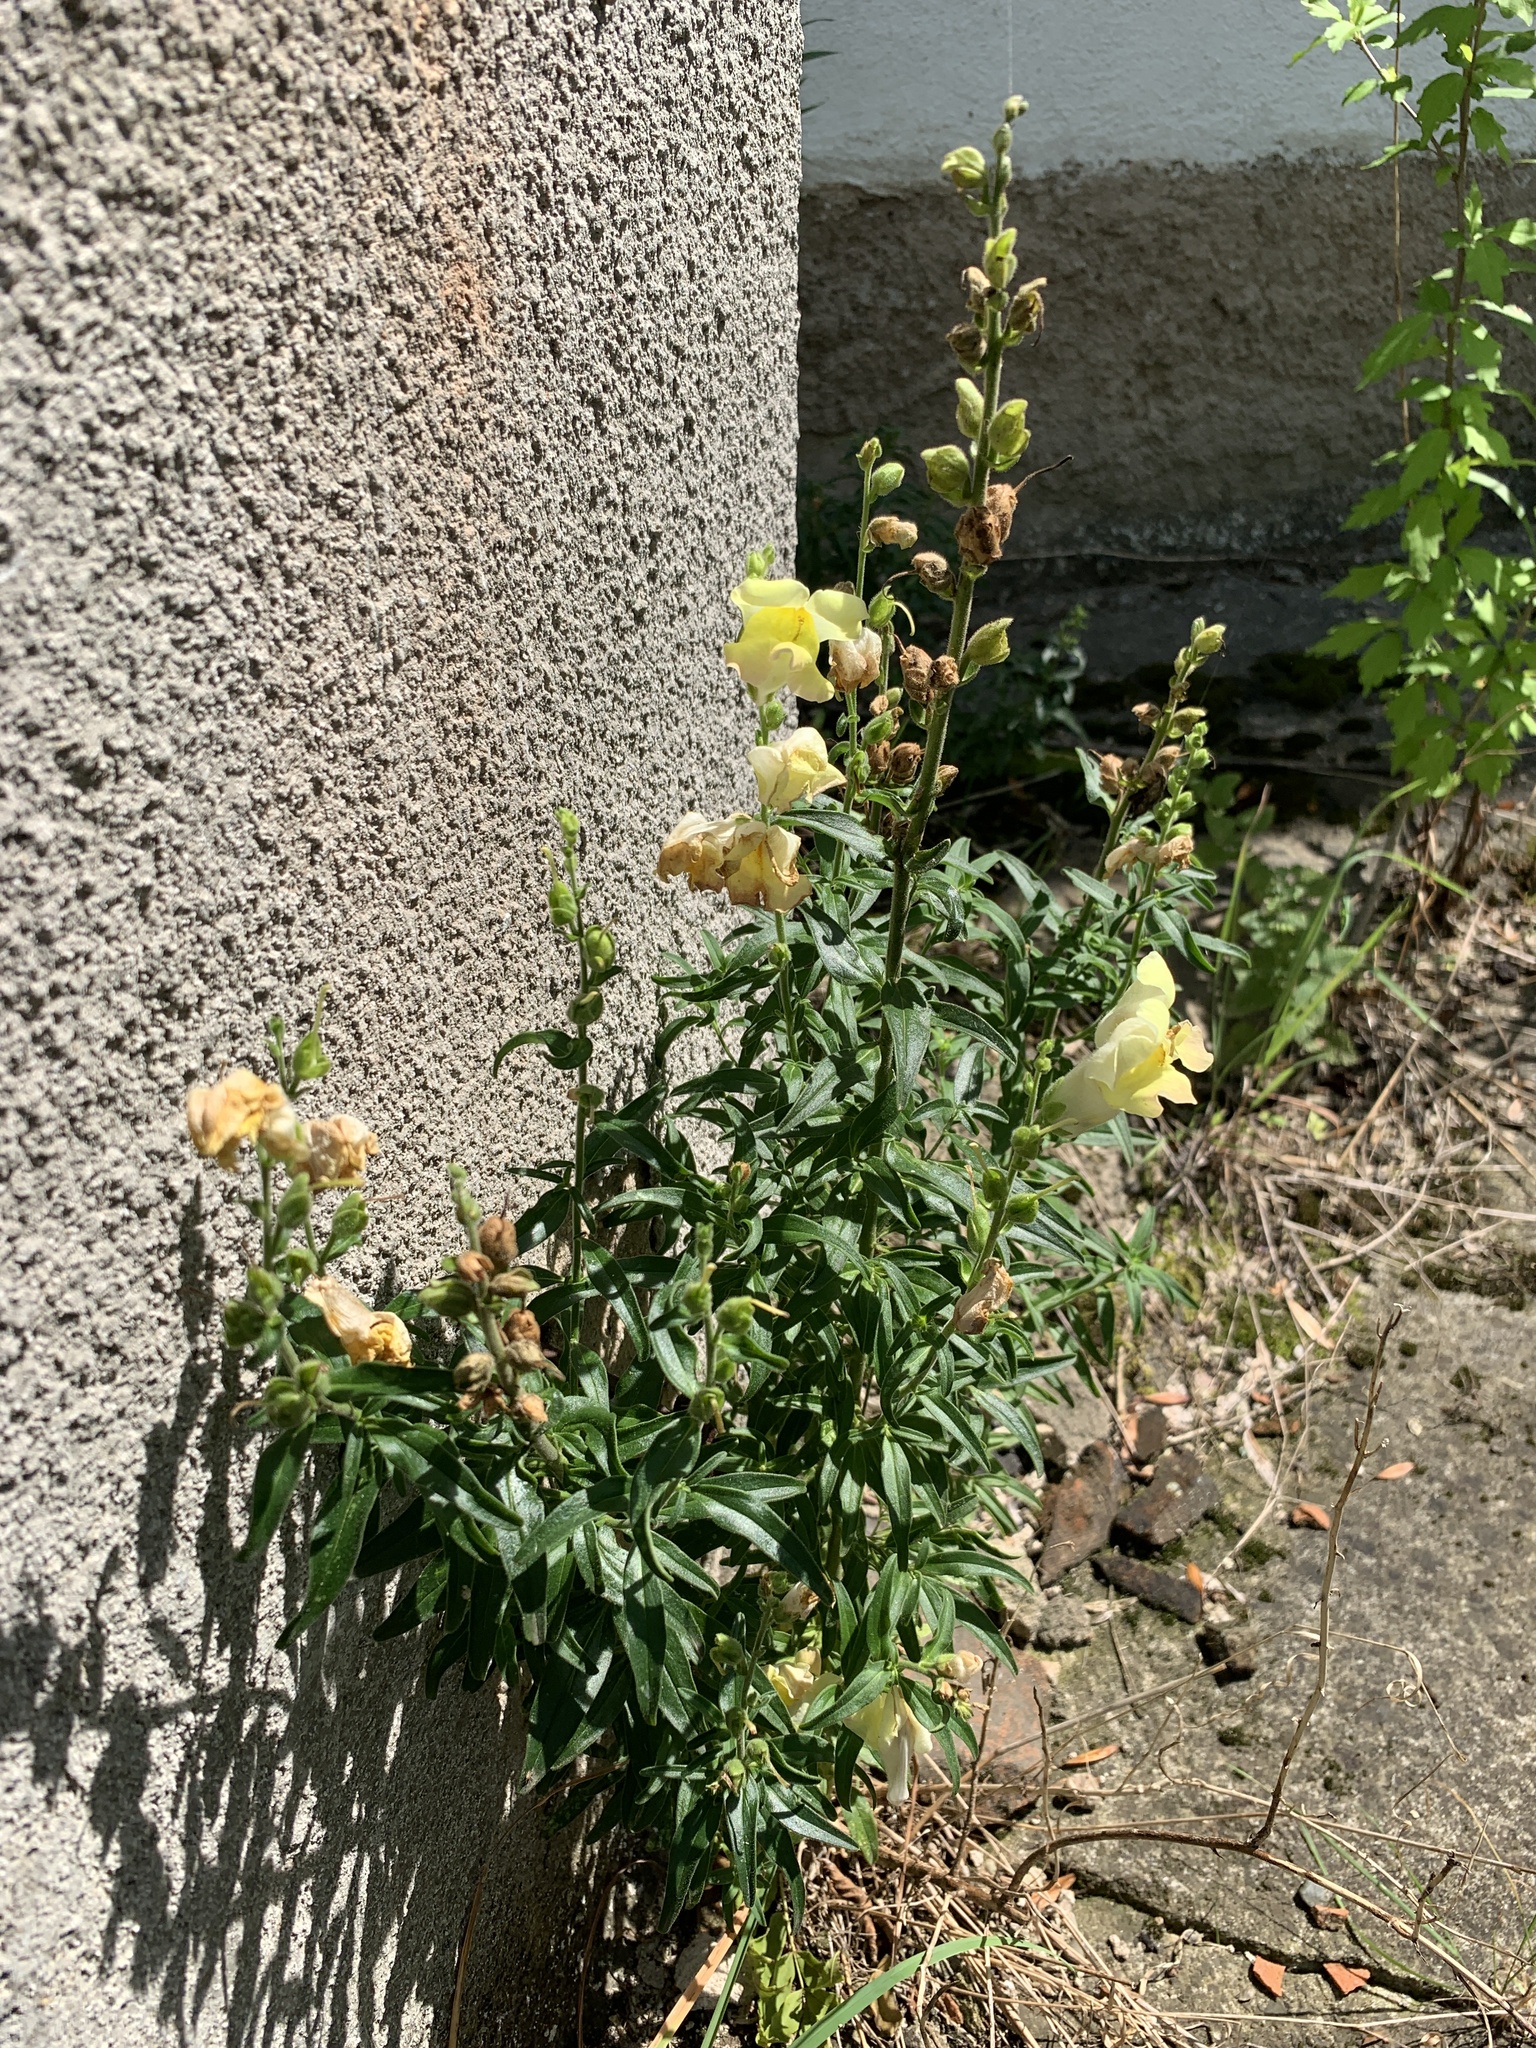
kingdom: Plantae
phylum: Tracheophyta
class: Magnoliopsida
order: Lamiales
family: Plantaginaceae
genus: Antirrhinum
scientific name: Antirrhinum majus
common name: Snapdragon
